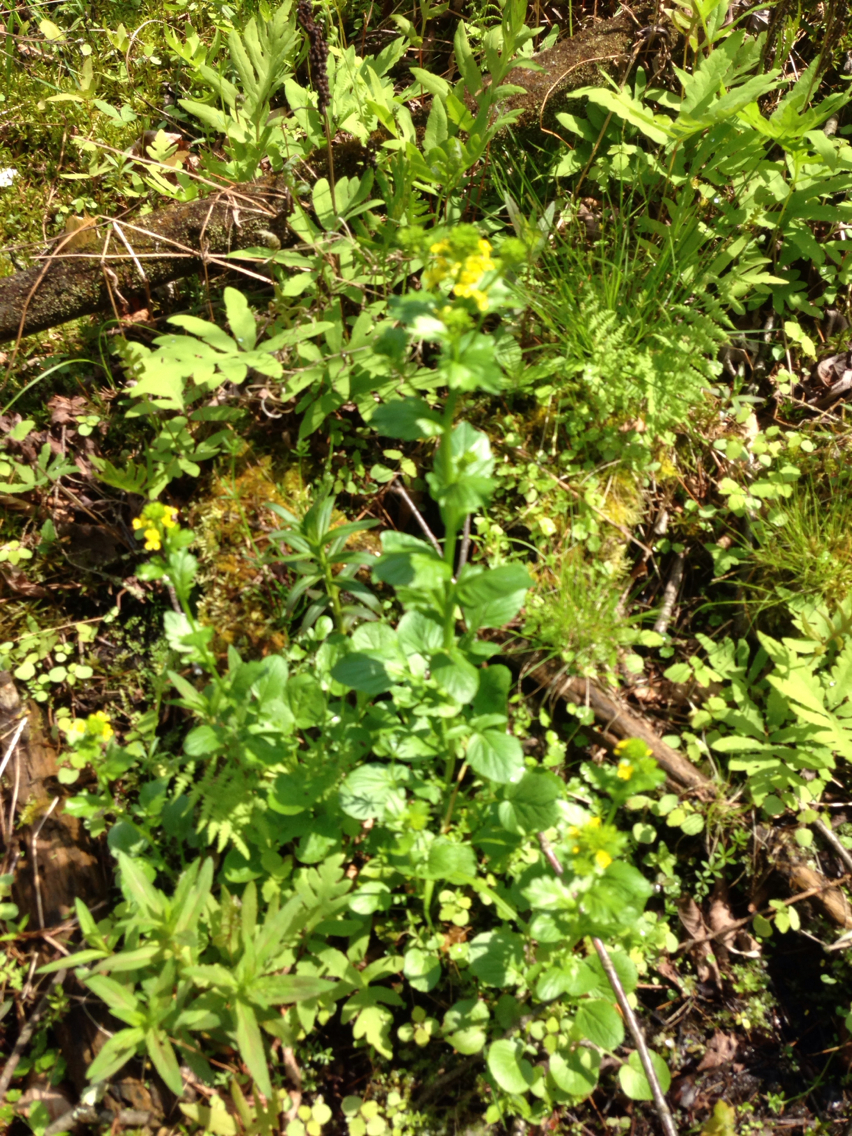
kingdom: Plantae
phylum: Tracheophyta
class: Magnoliopsida
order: Brassicales
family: Brassicaceae
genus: Barbarea
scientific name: Barbarea vulgaris
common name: Cressy-greens
